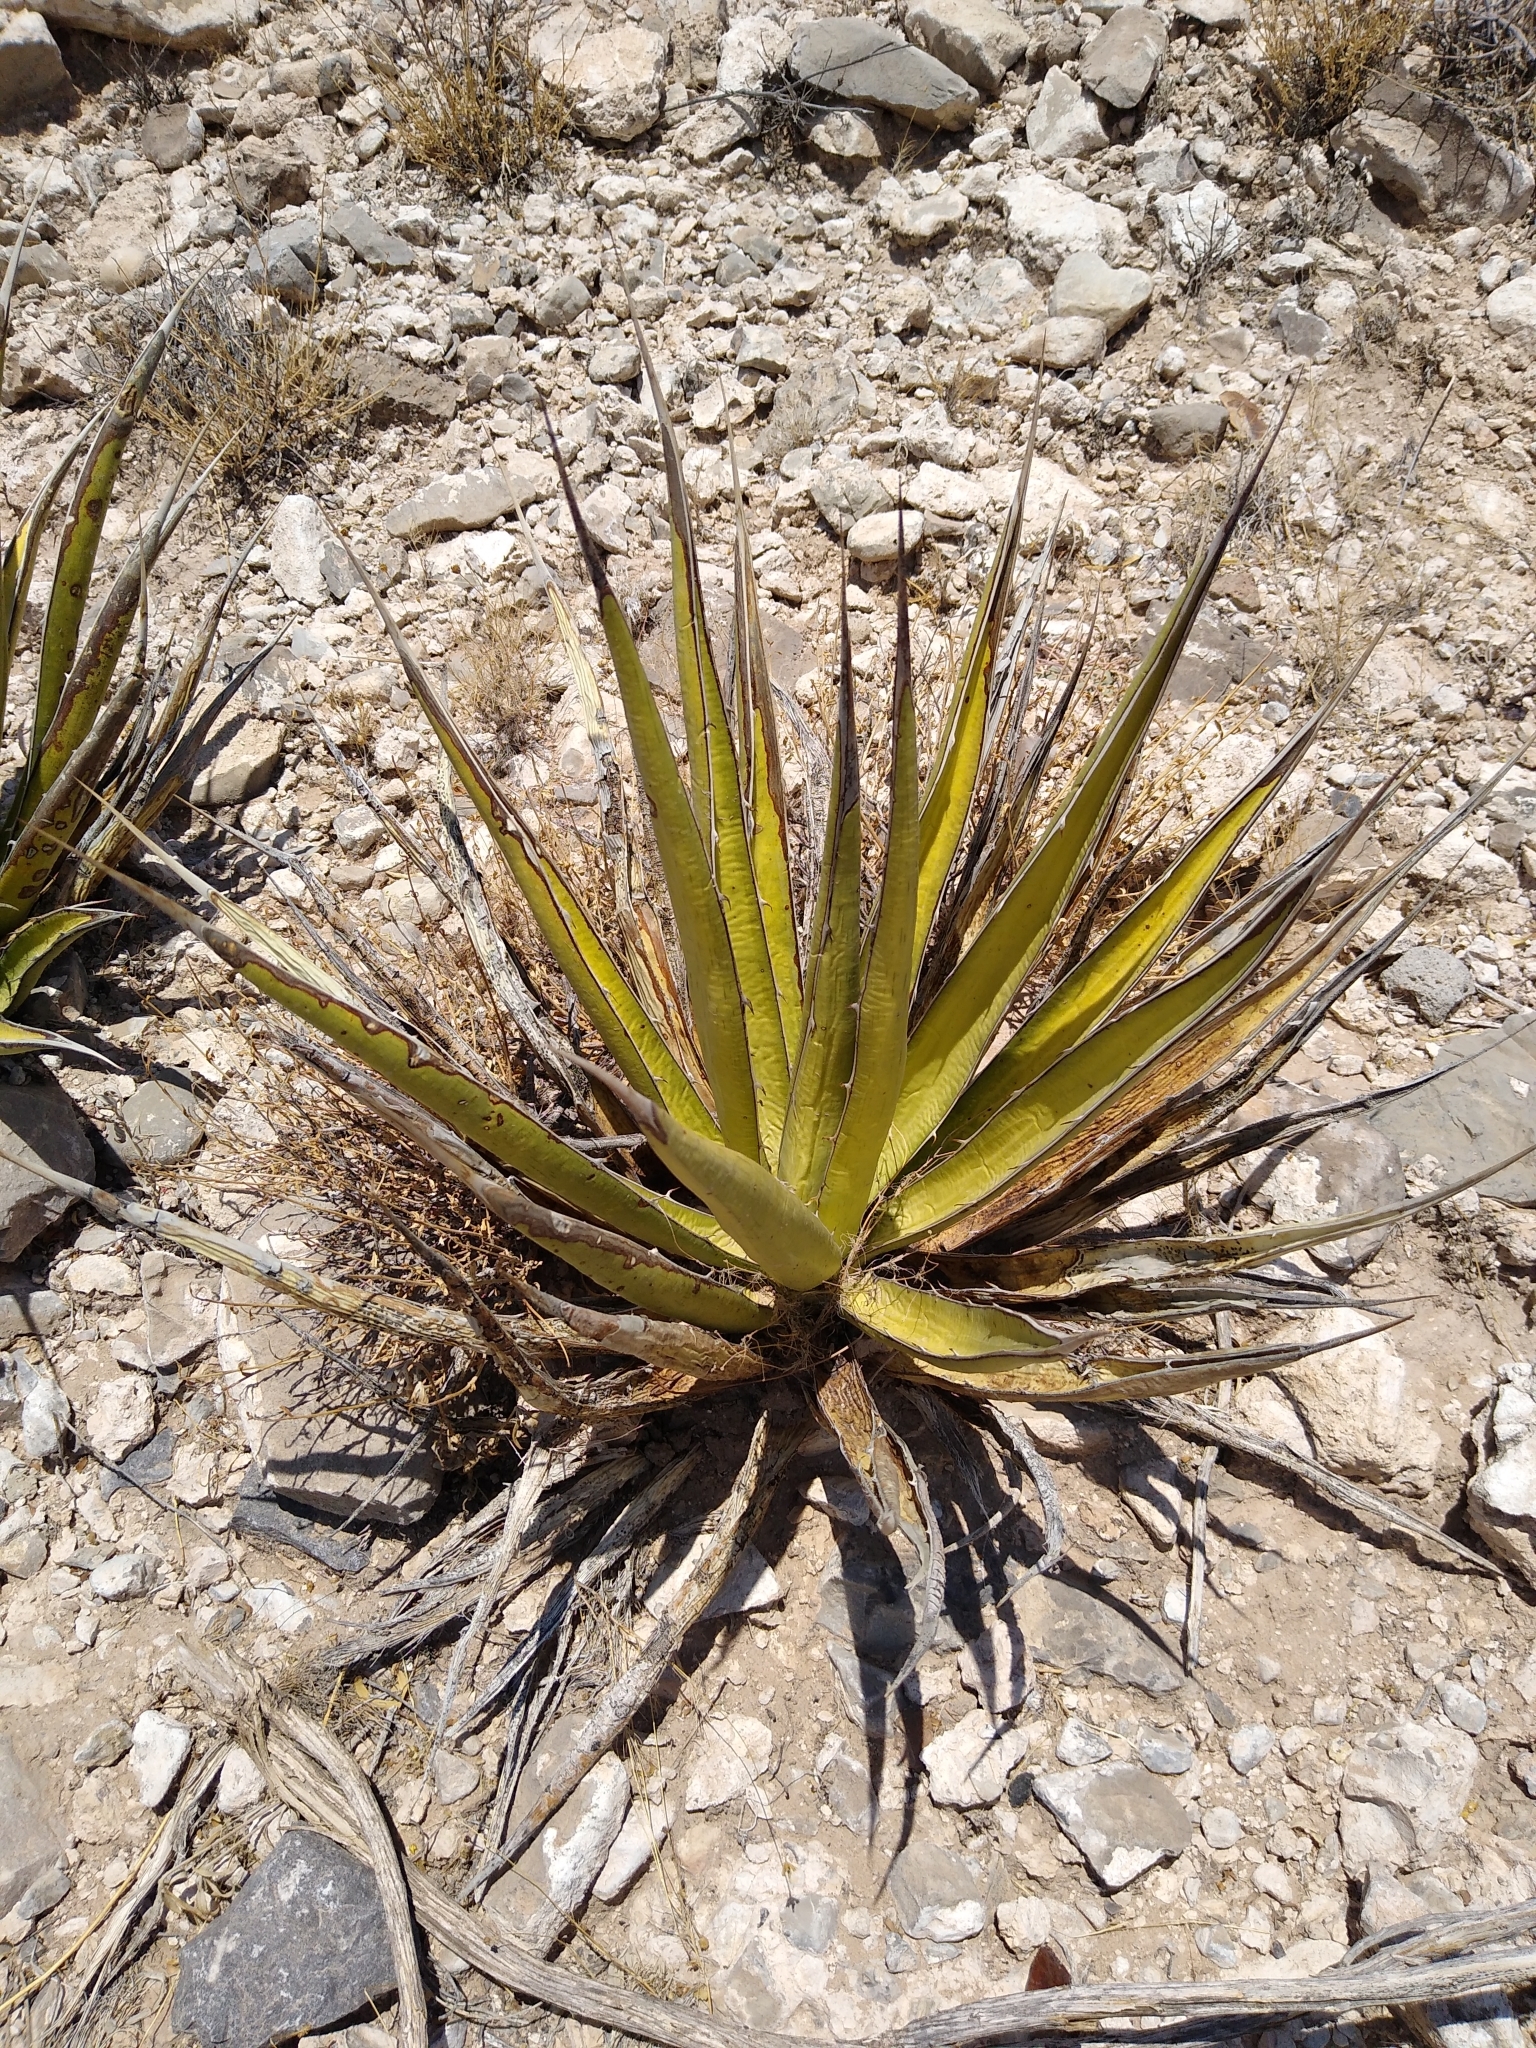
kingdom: Plantae
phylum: Tracheophyta
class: Liliopsida
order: Asparagales
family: Asparagaceae
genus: Agave
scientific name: Agave lechuguilla
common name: Lecheguilla agave
